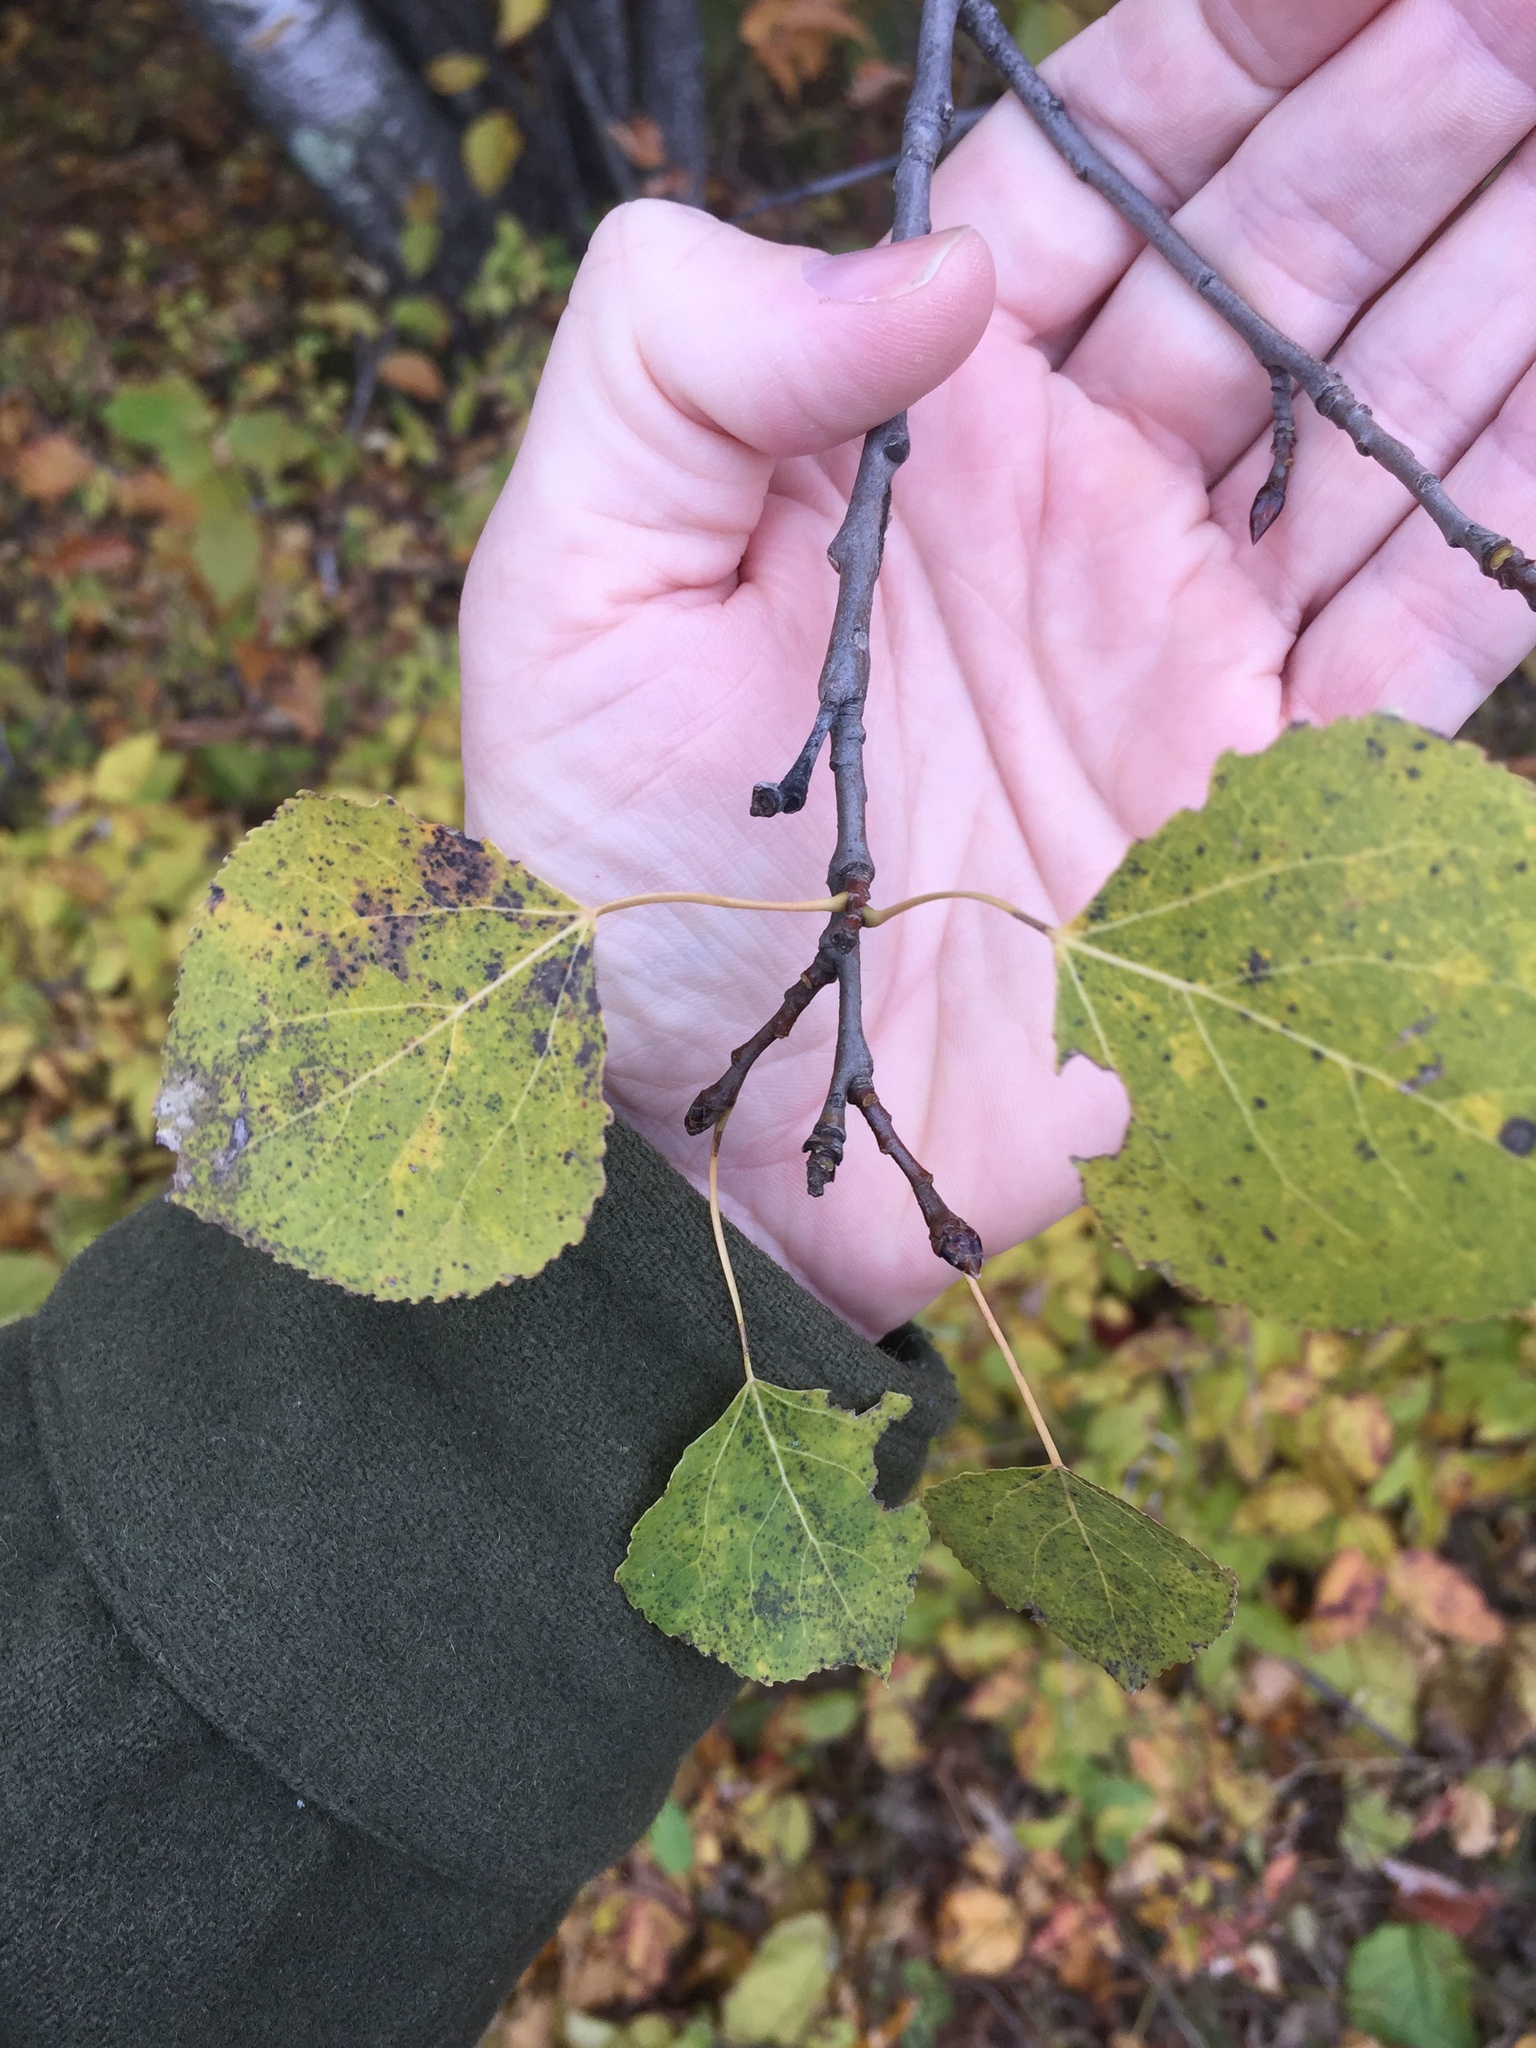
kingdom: Plantae
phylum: Tracheophyta
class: Magnoliopsida
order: Malpighiales
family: Salicaceae
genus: Populus
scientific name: Populus tremuloides
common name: Quaking aspen
